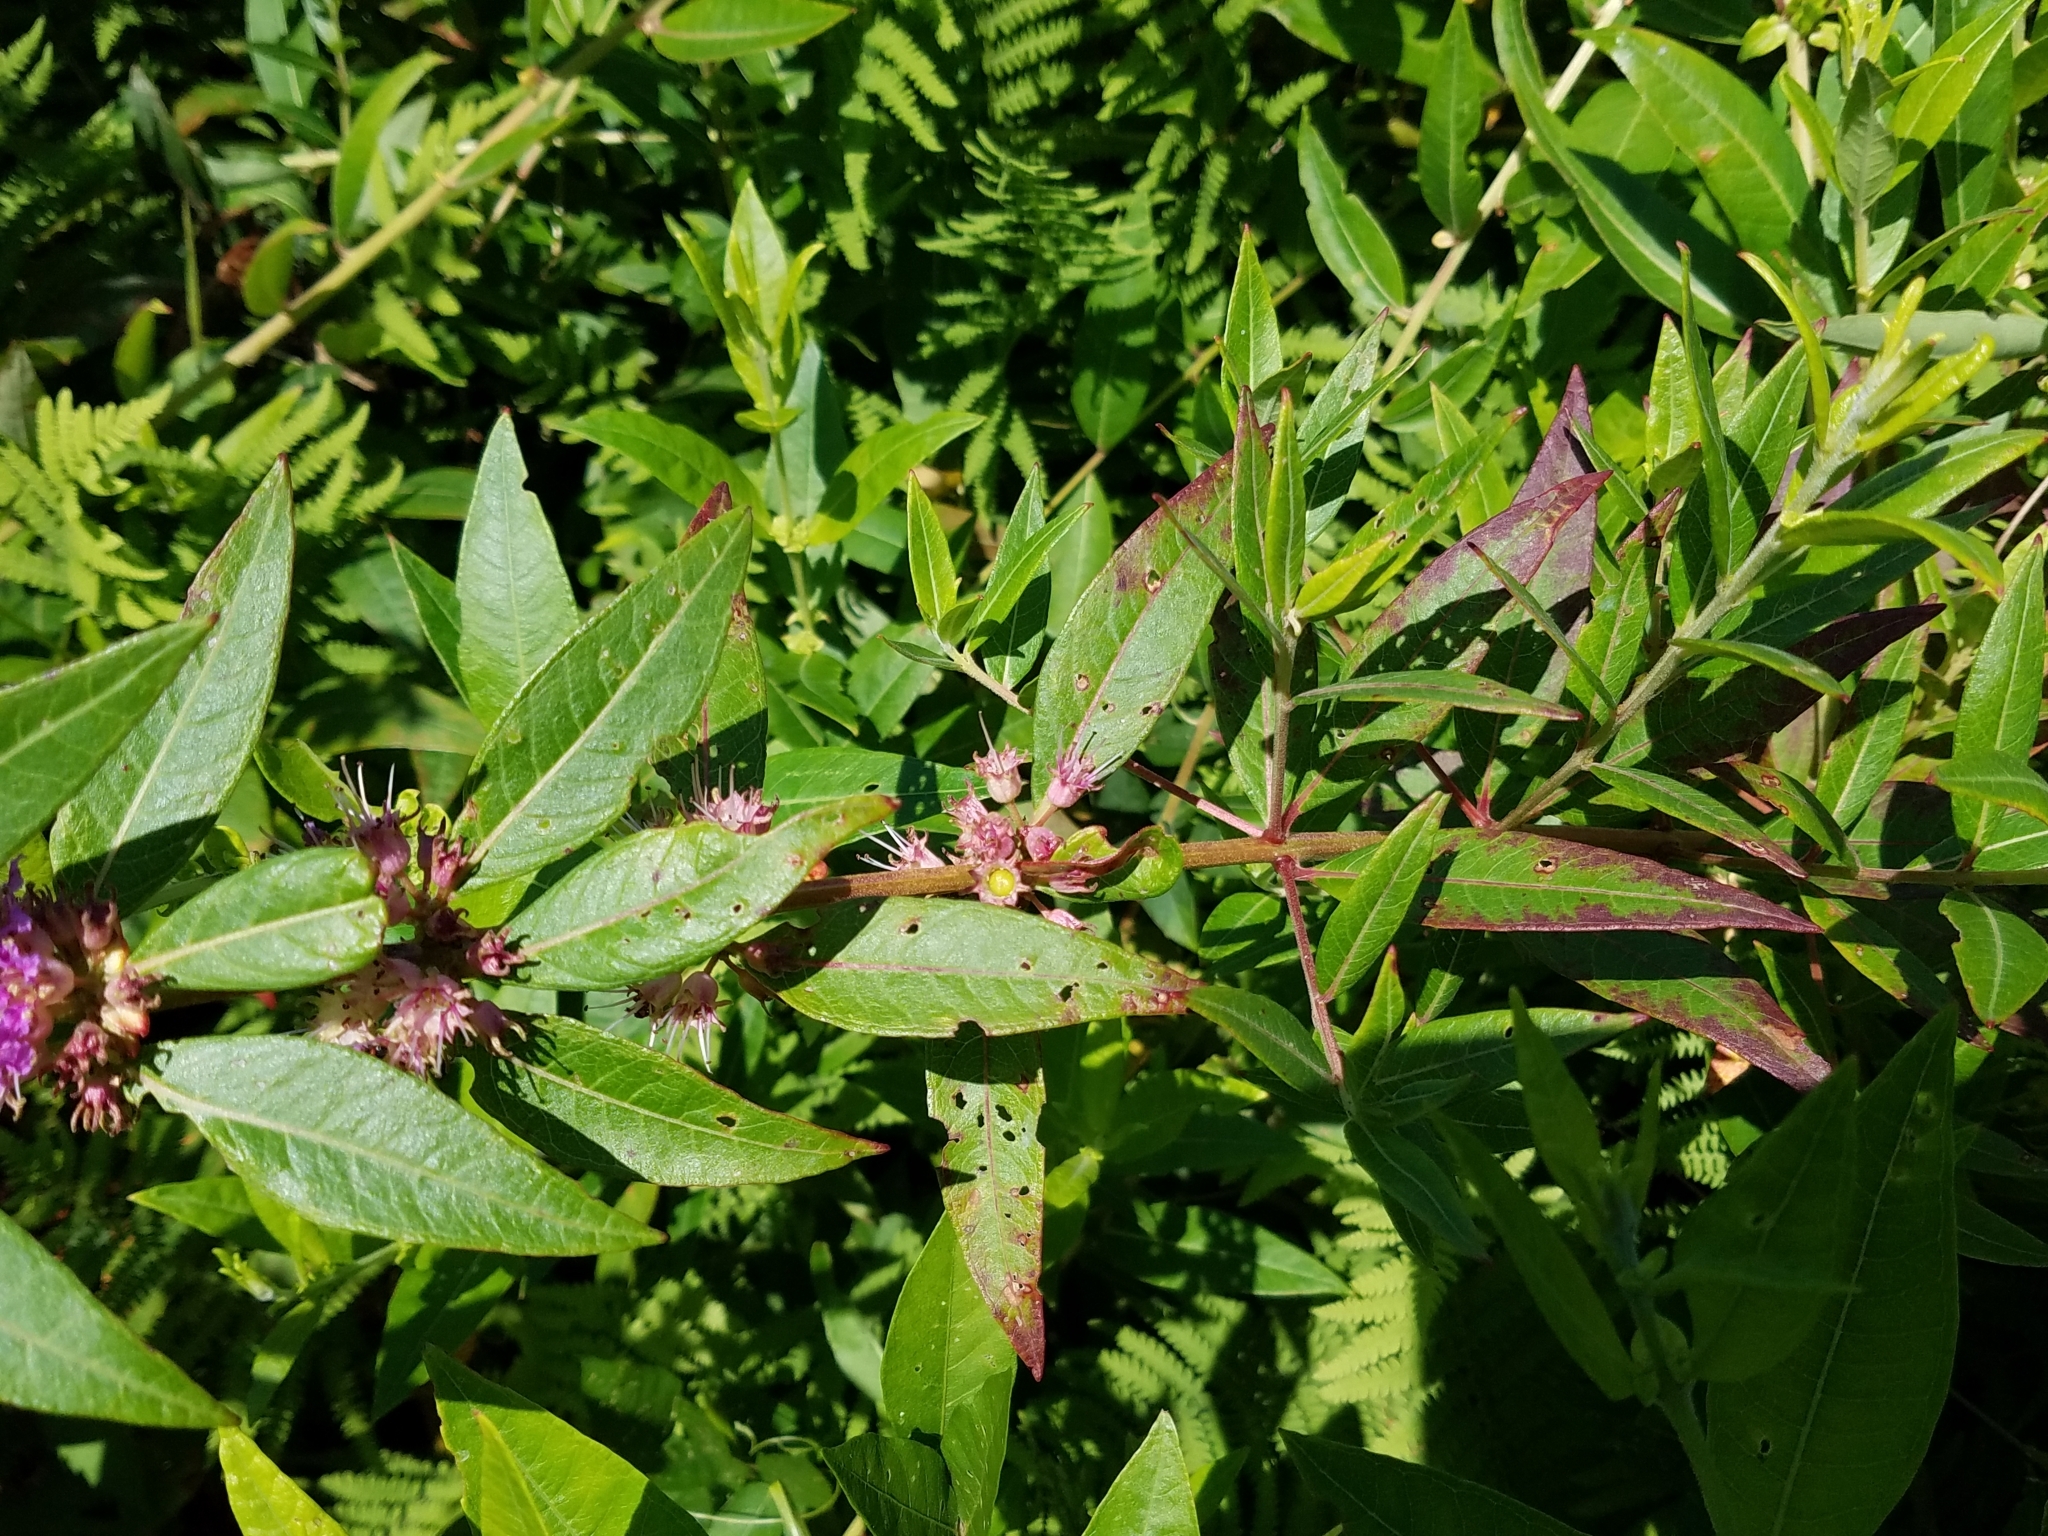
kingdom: Plantae
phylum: Tracheophyta
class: Magnoliopsida
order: Myrtales
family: Lythraceae
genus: Decodon
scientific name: Decodon verticillatus
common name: Hairy swamp loosestrife
